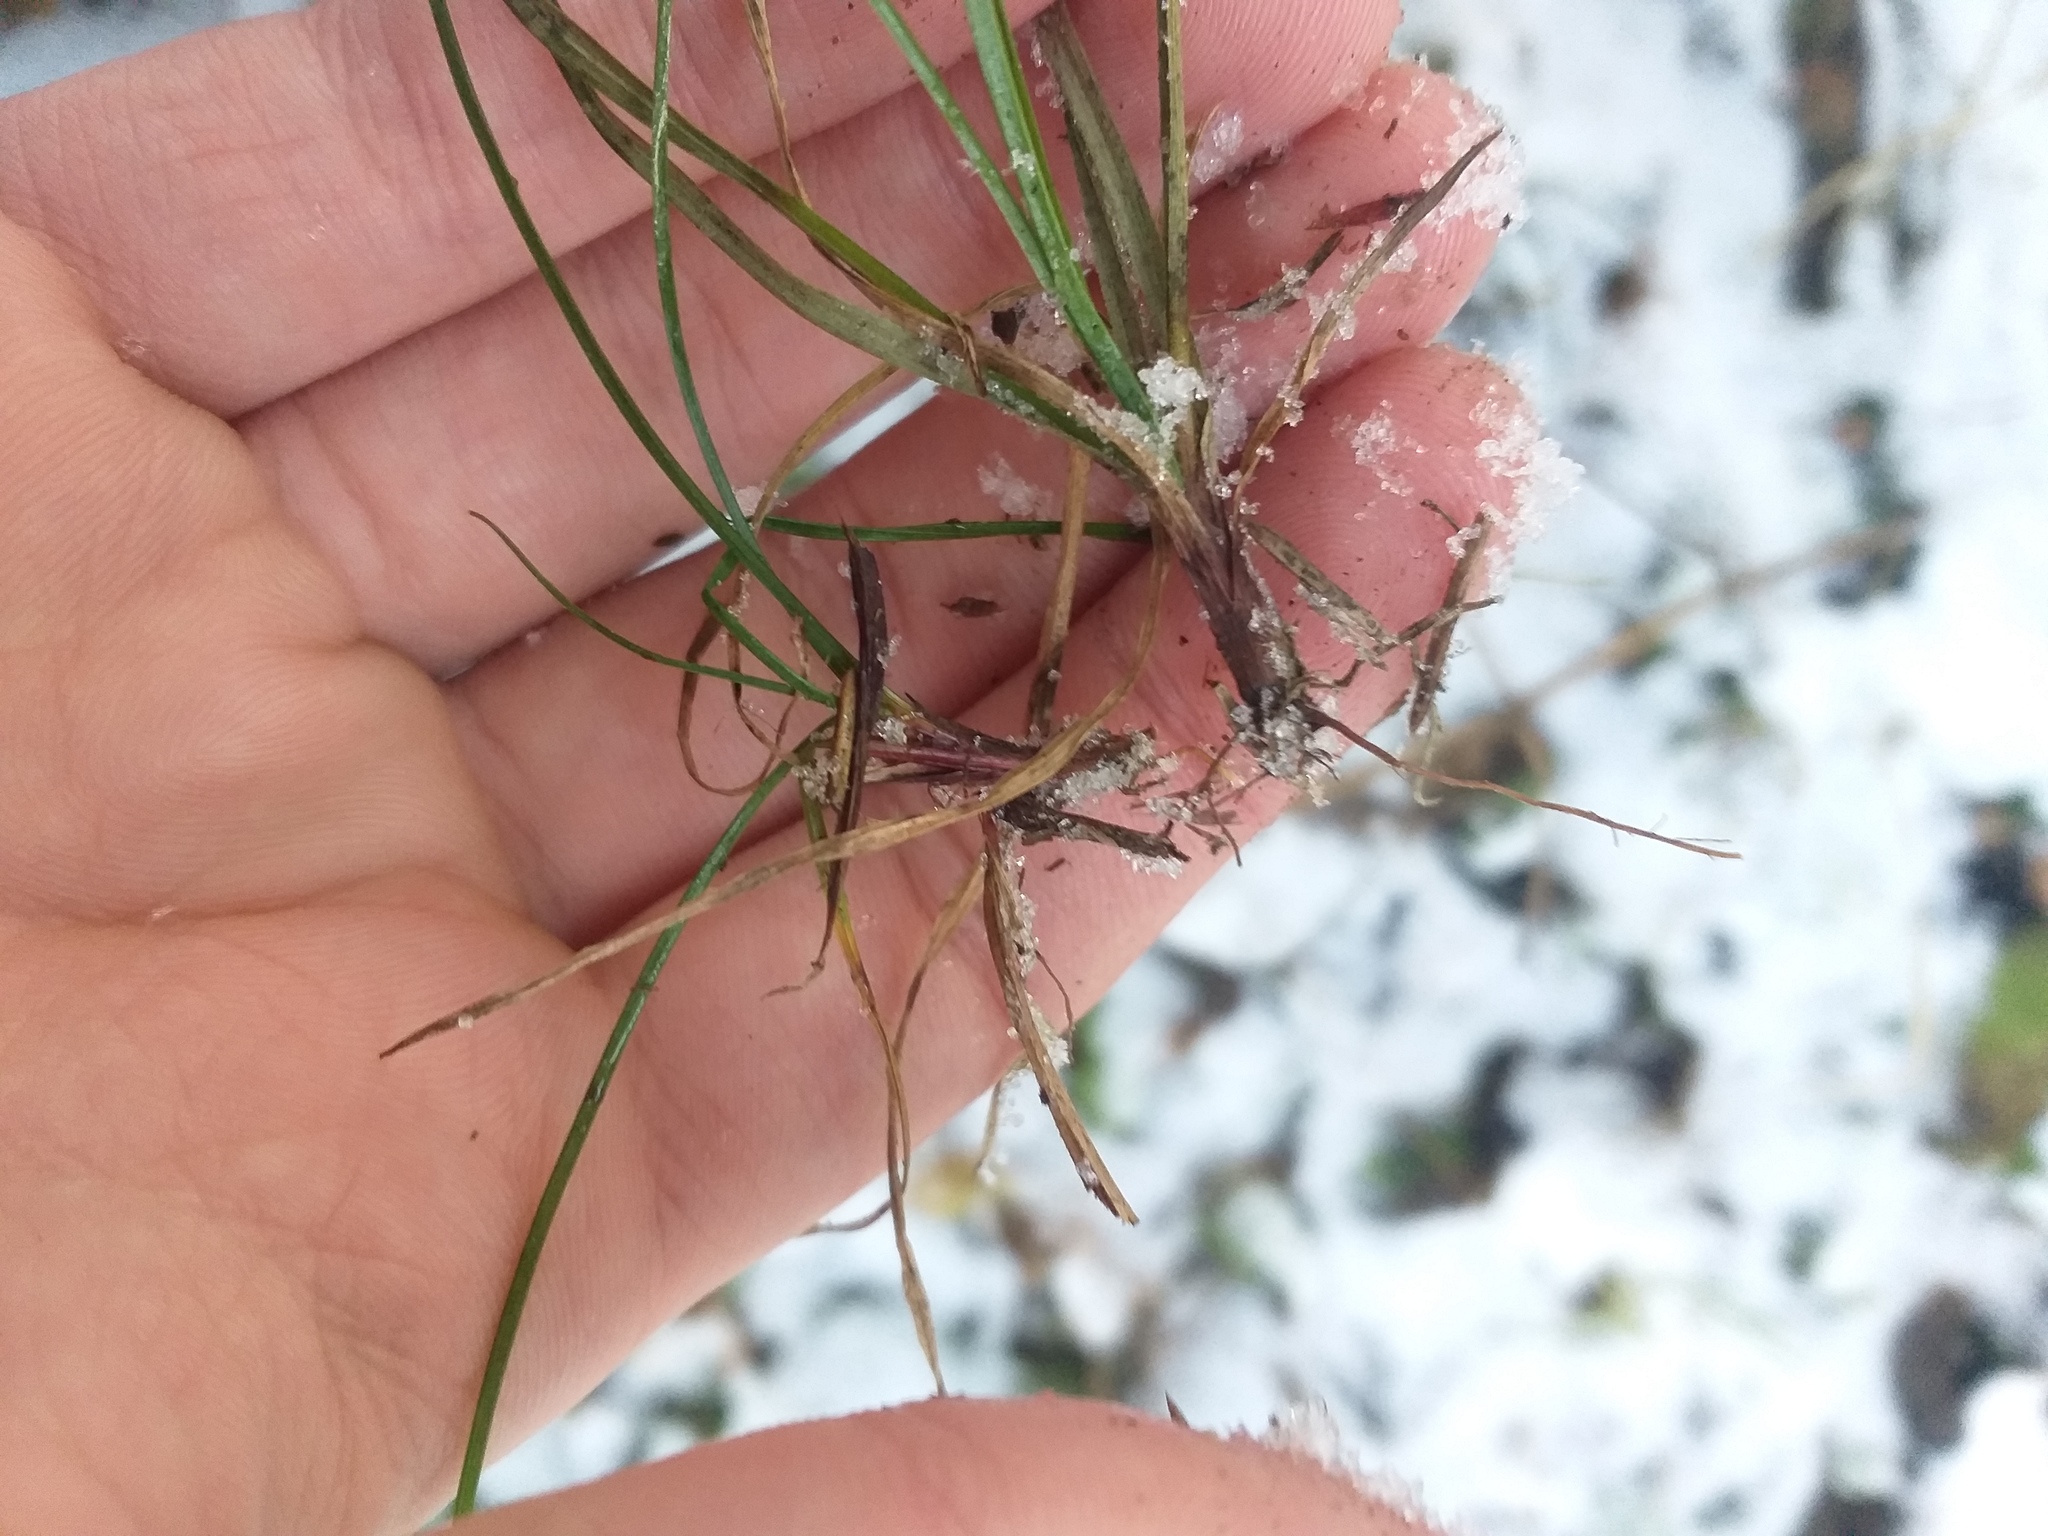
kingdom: Plantae
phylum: Tracheophyta
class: Liliopsida
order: Poales
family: Cyperaceae
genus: Carex
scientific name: Carex digitata
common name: Fingered sedge
